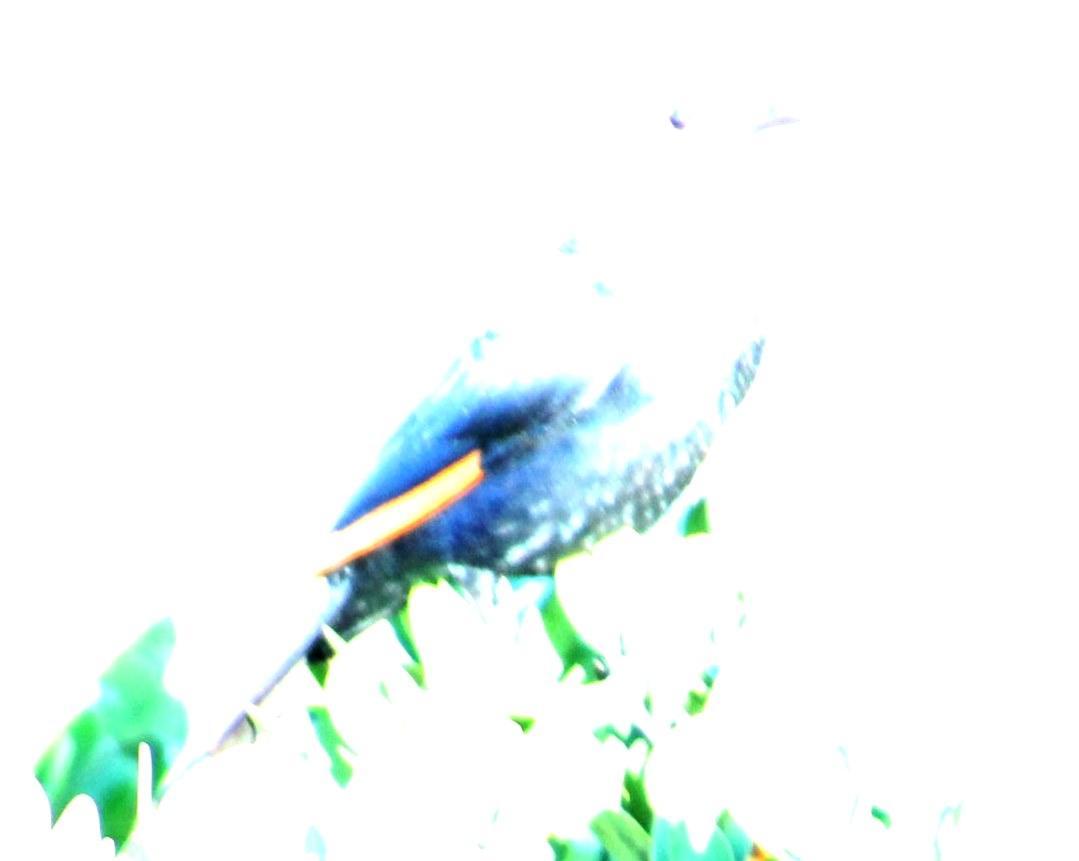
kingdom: Animalia
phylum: Chordata
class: Aves
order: Passeriformes
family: Sturnidae
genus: Onychognathus
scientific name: Onychognathus morio
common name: Red-winged starling
